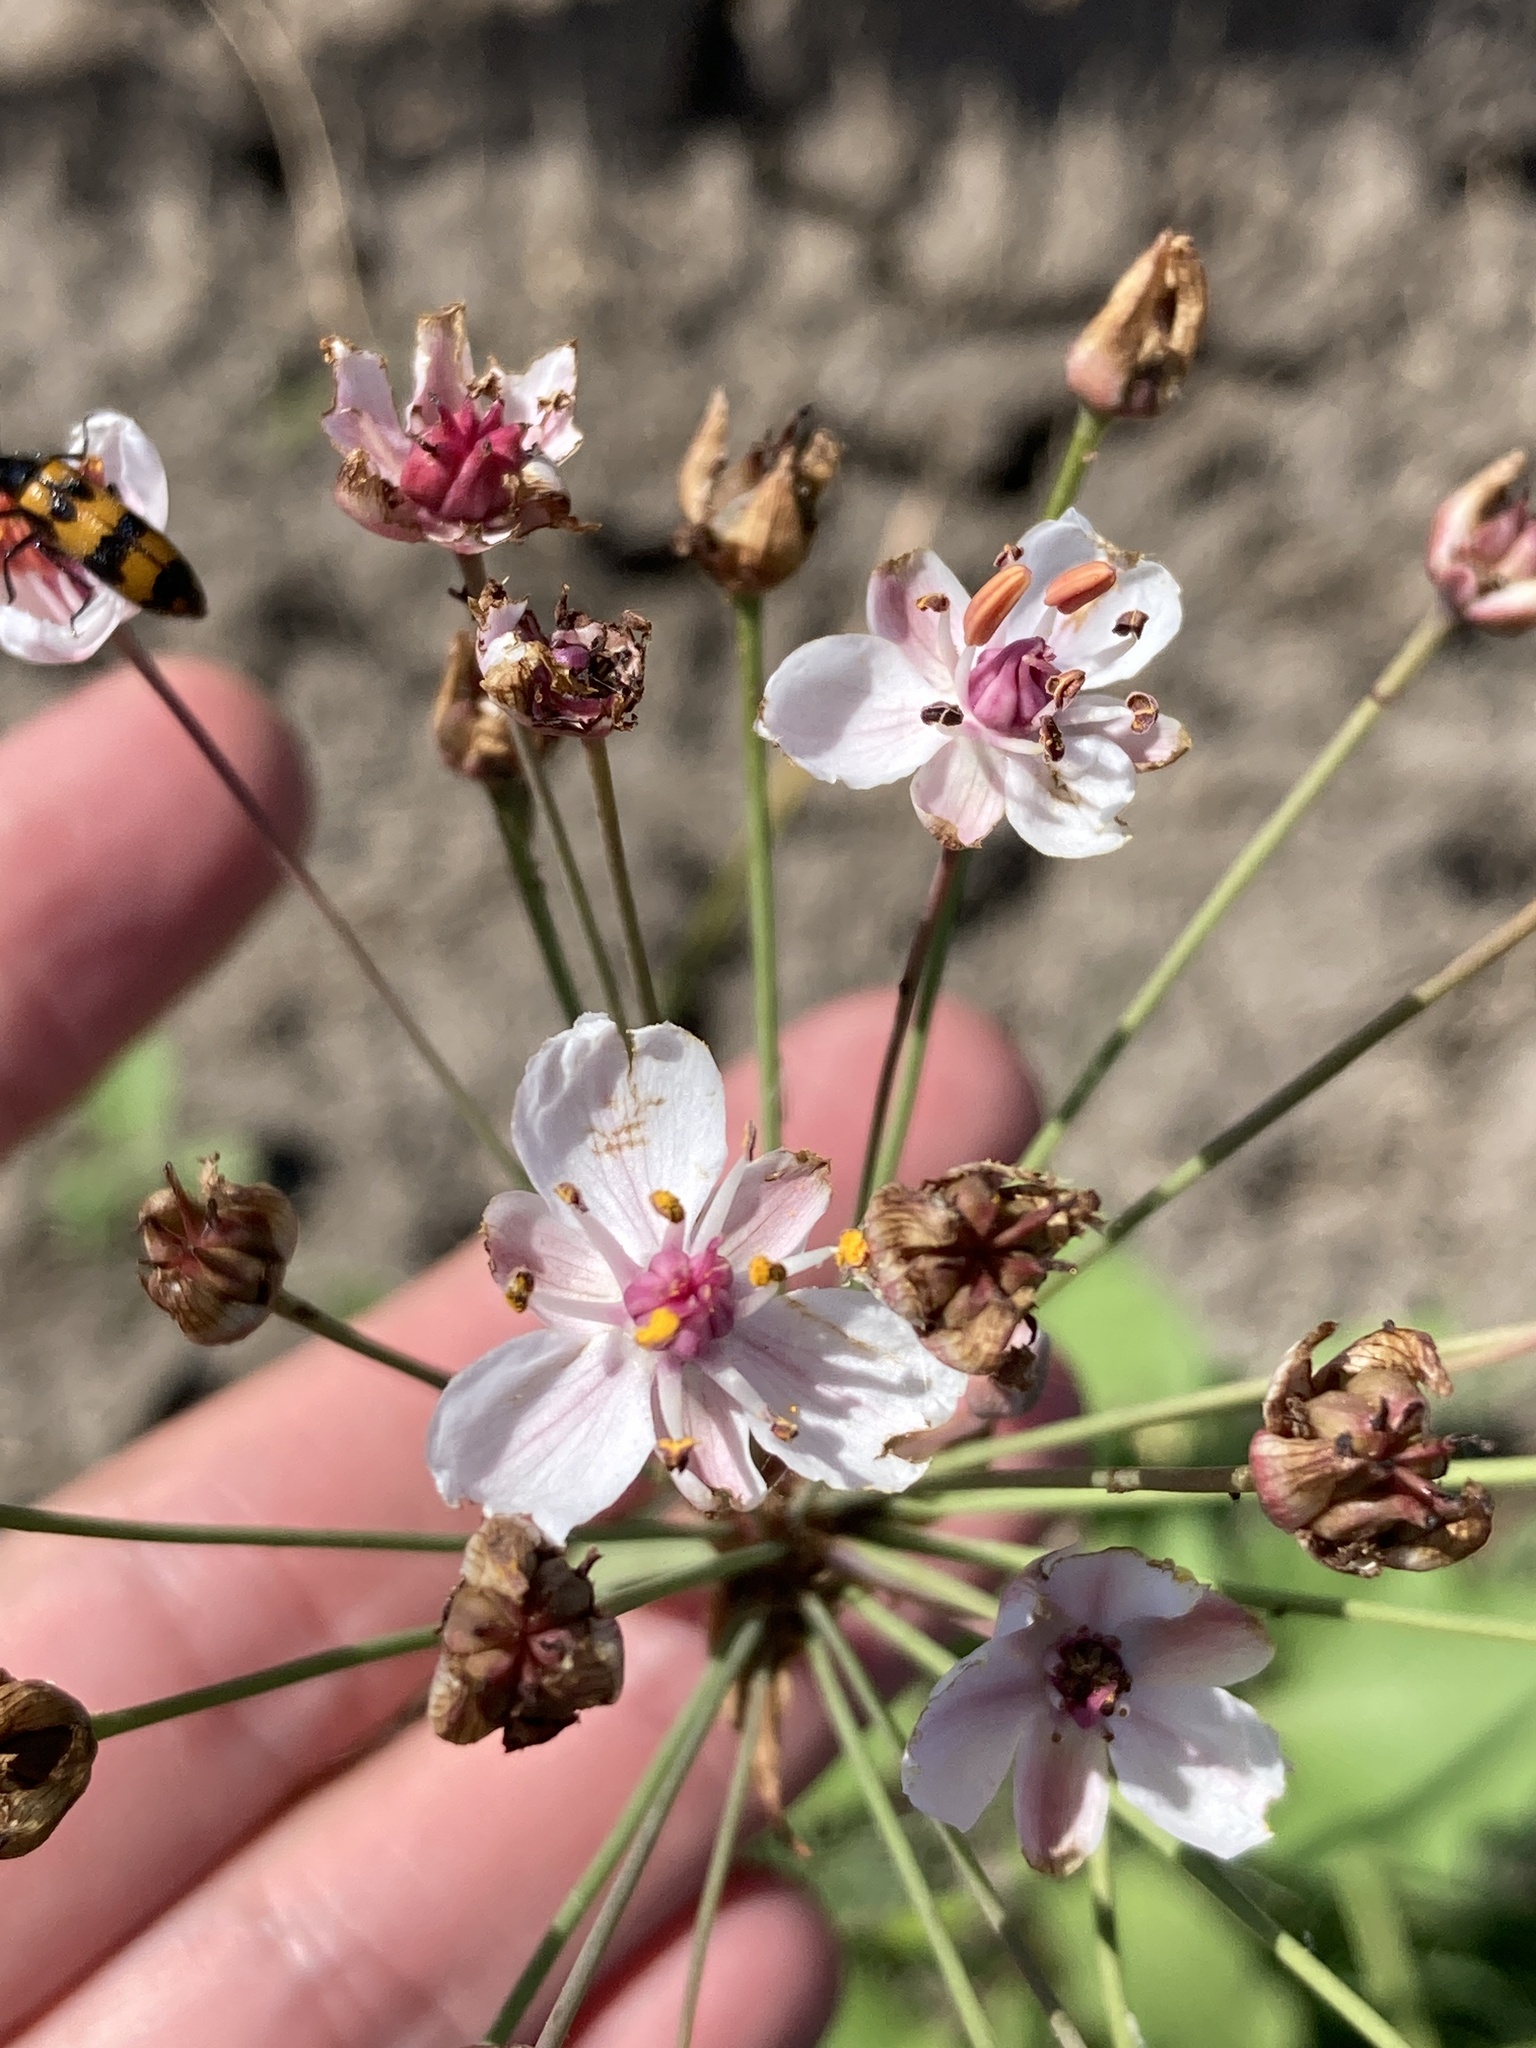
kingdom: Plantae
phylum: Tracheophyta
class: Liliopsida
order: Alismatales
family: Butomaceae
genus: Butomus
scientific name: Butomus umbellatus
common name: Flowering-rush
